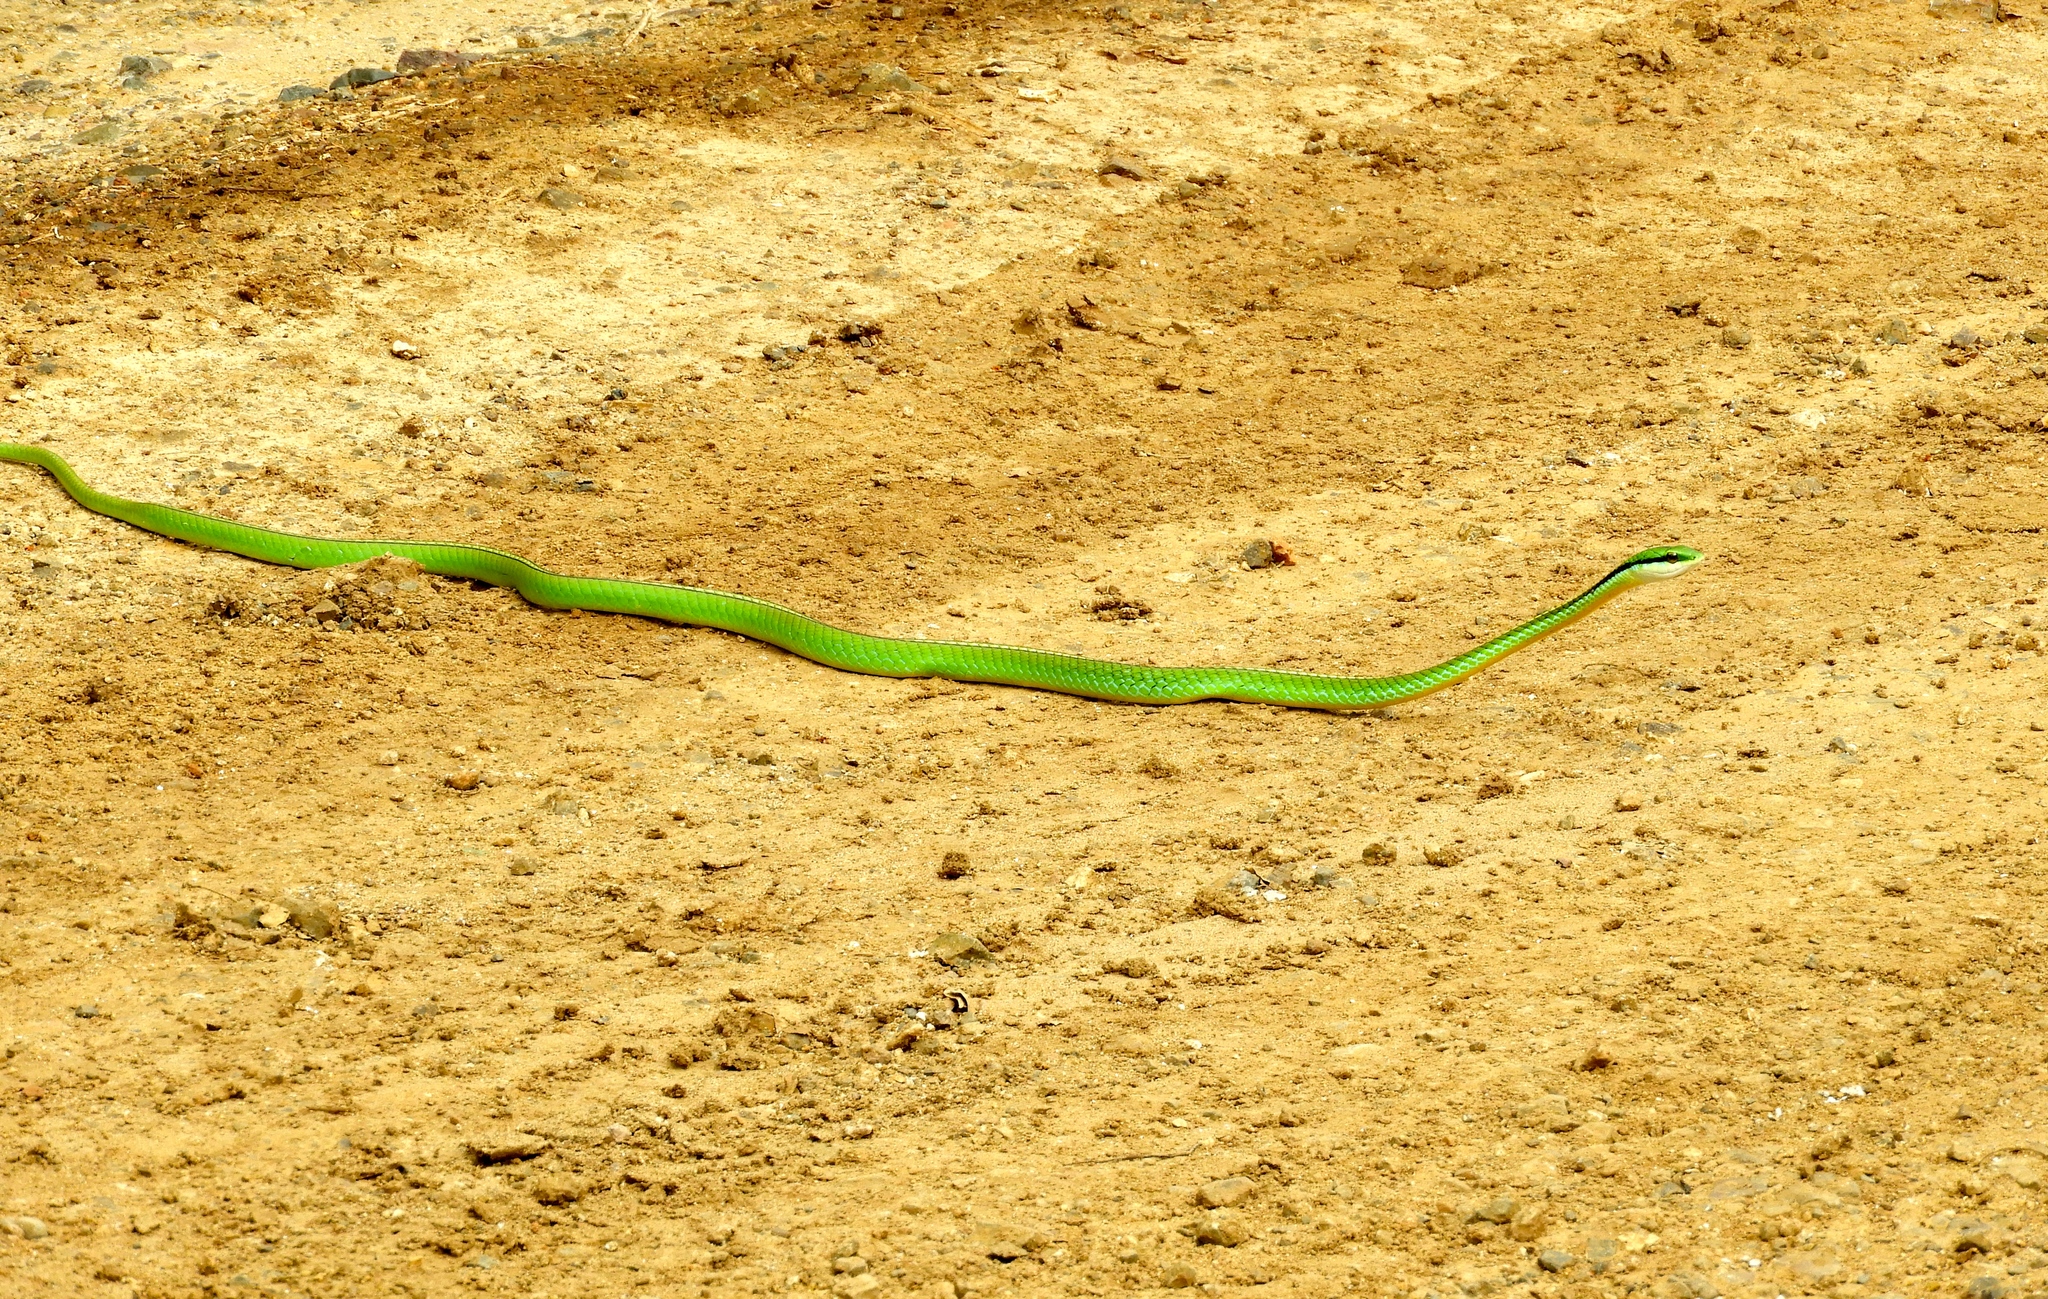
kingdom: Animalia
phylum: Chordata
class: Squamata
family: Colubridae
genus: Leptophis
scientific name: Leptophis diplotropis
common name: Pacific coast parrot snake
